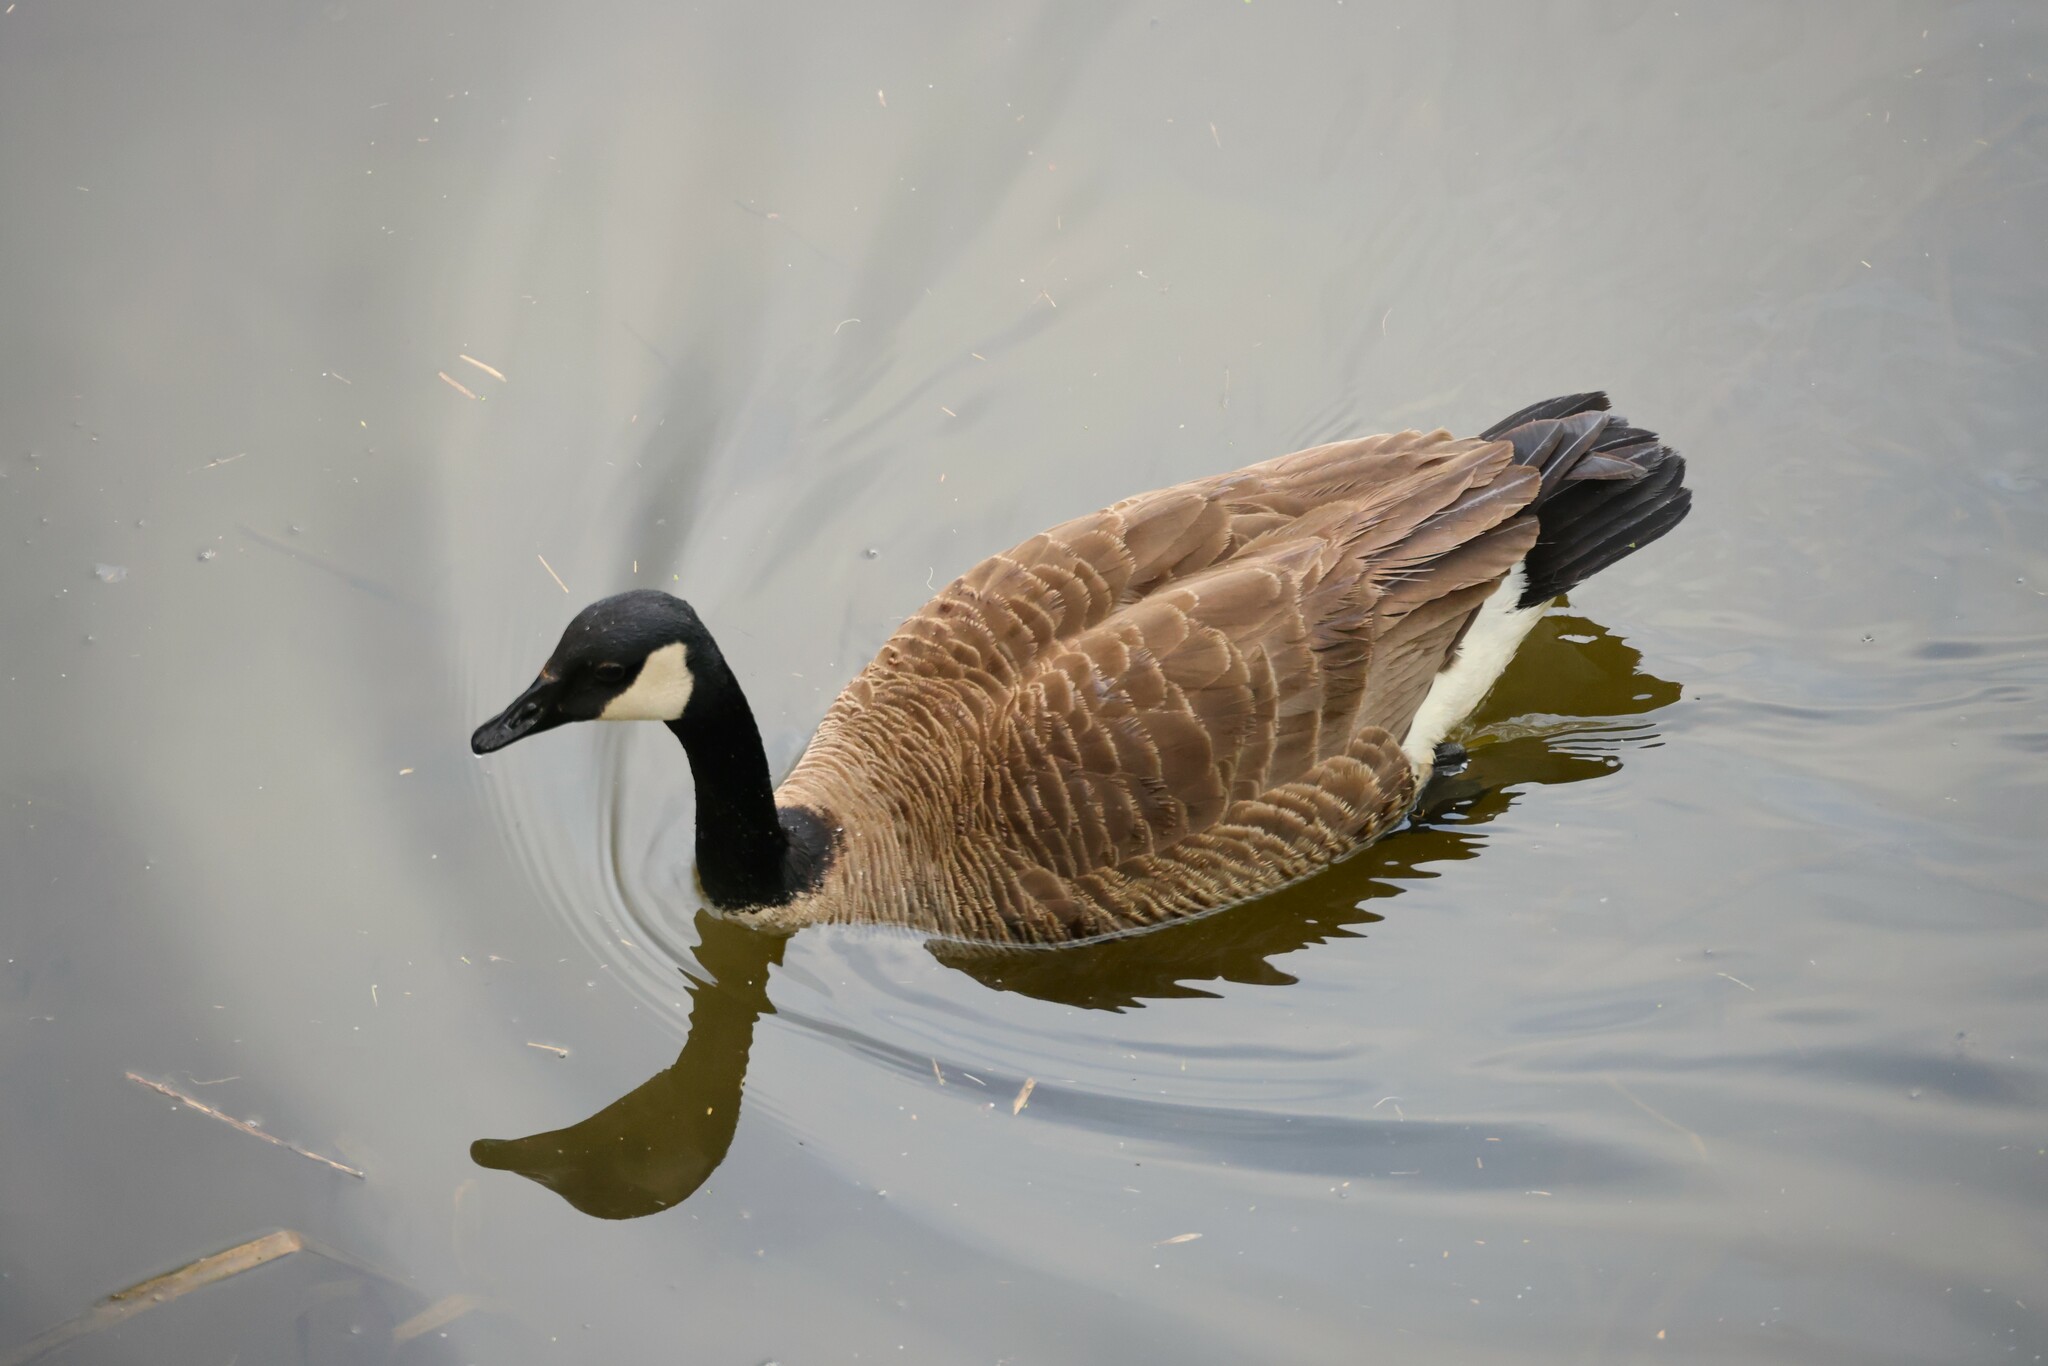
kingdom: Animalia
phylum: Chordata
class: Aves
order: Anseriformes
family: Anatidae
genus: Branta
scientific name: Branta canadensis
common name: Canada goose
